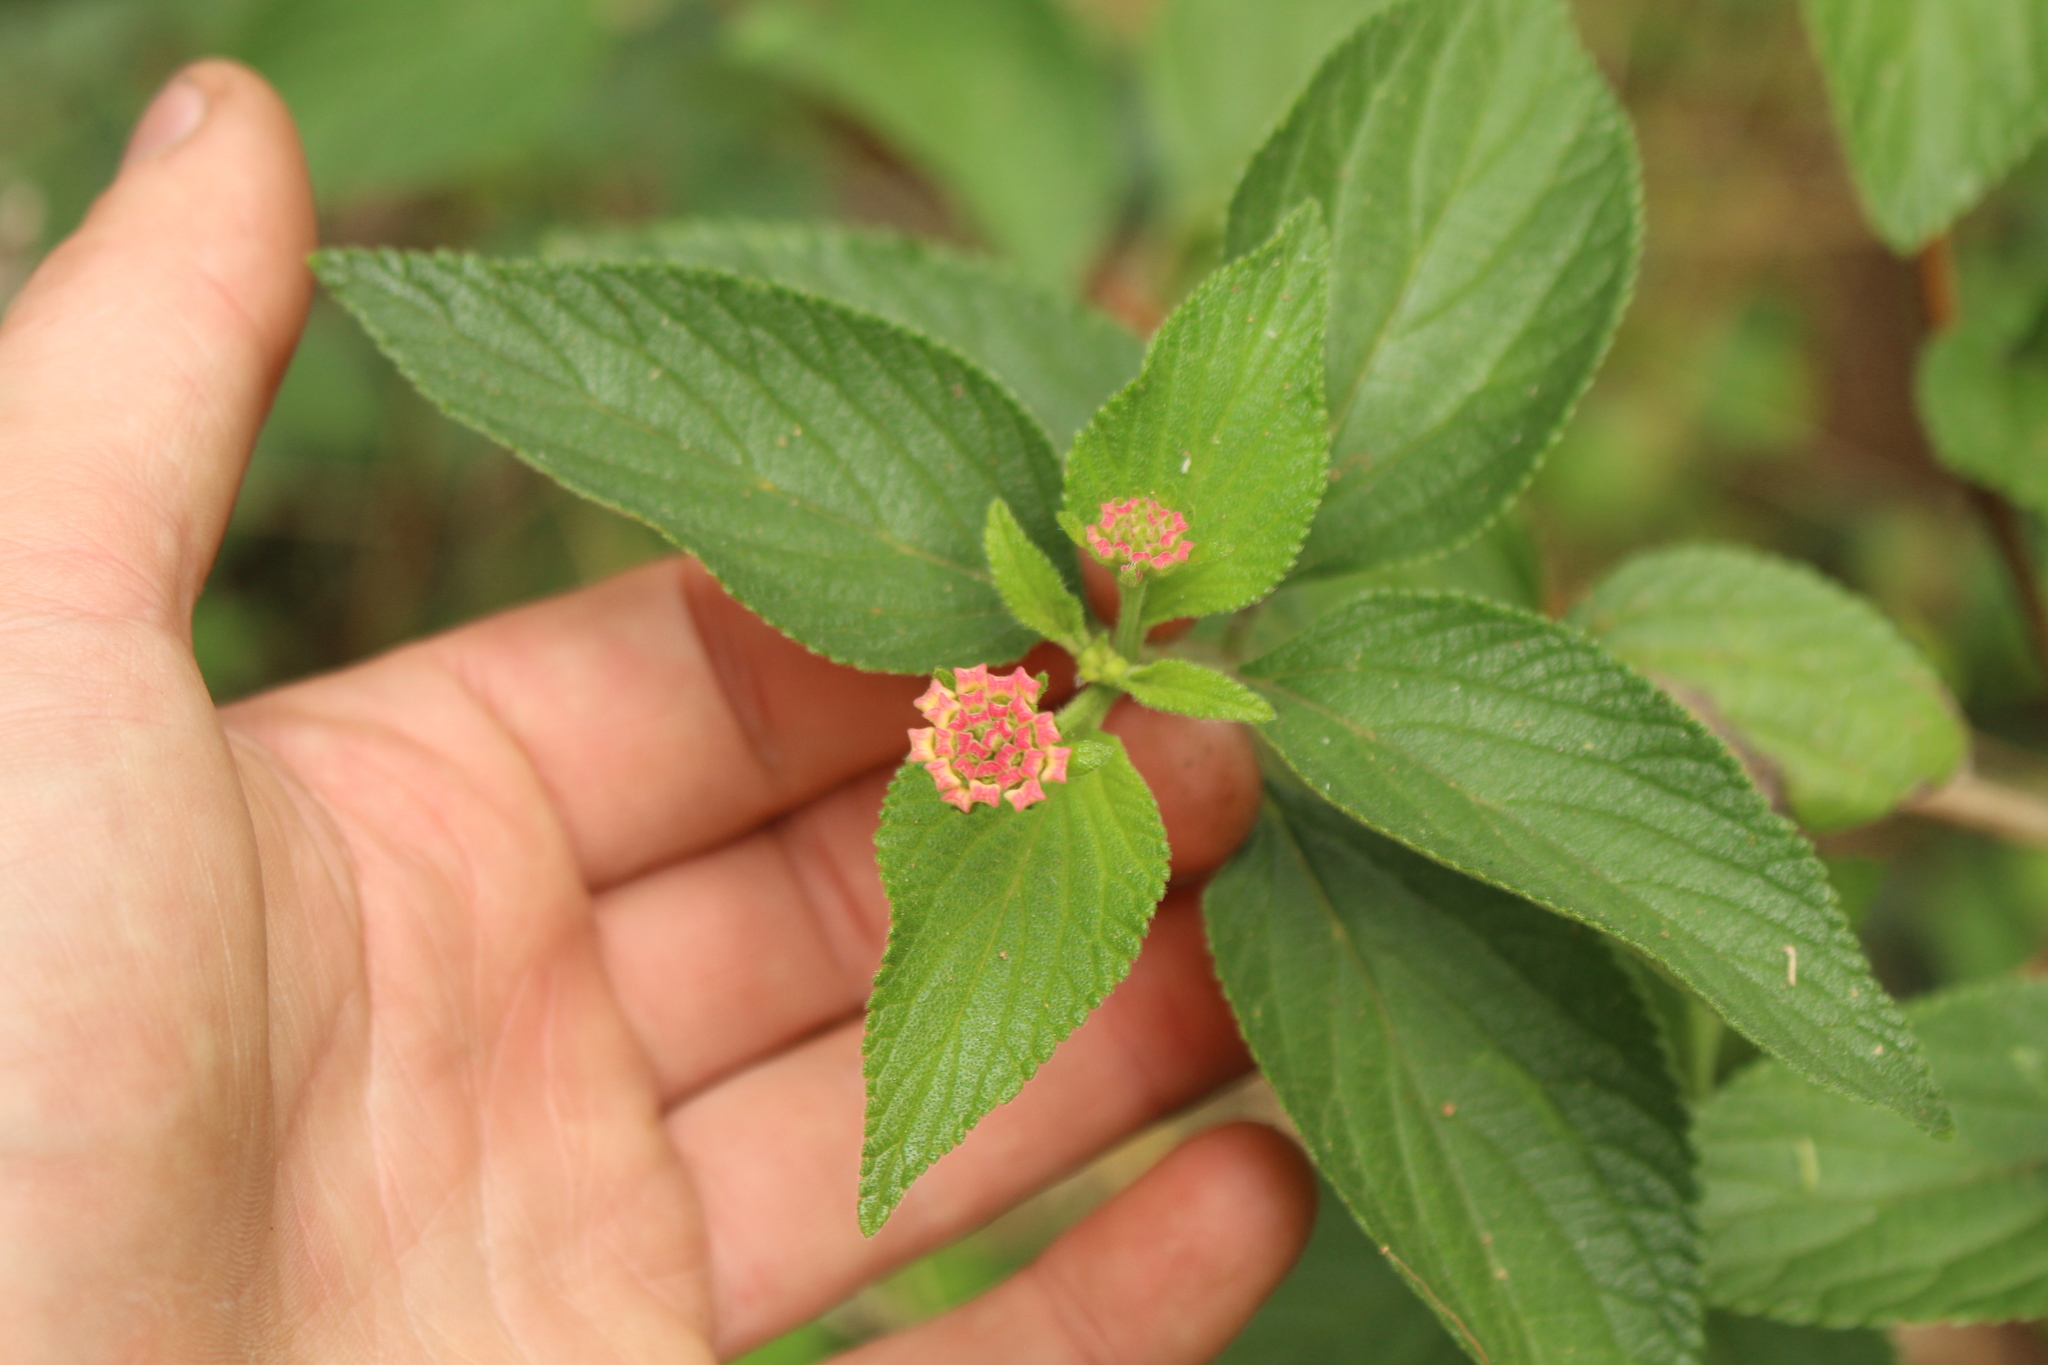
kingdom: Plantae
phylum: Tracheophyta
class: Magnoliopsida
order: Lamiales
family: Verbenaceae
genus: Lantana
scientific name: Lantana camara
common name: Lantana
